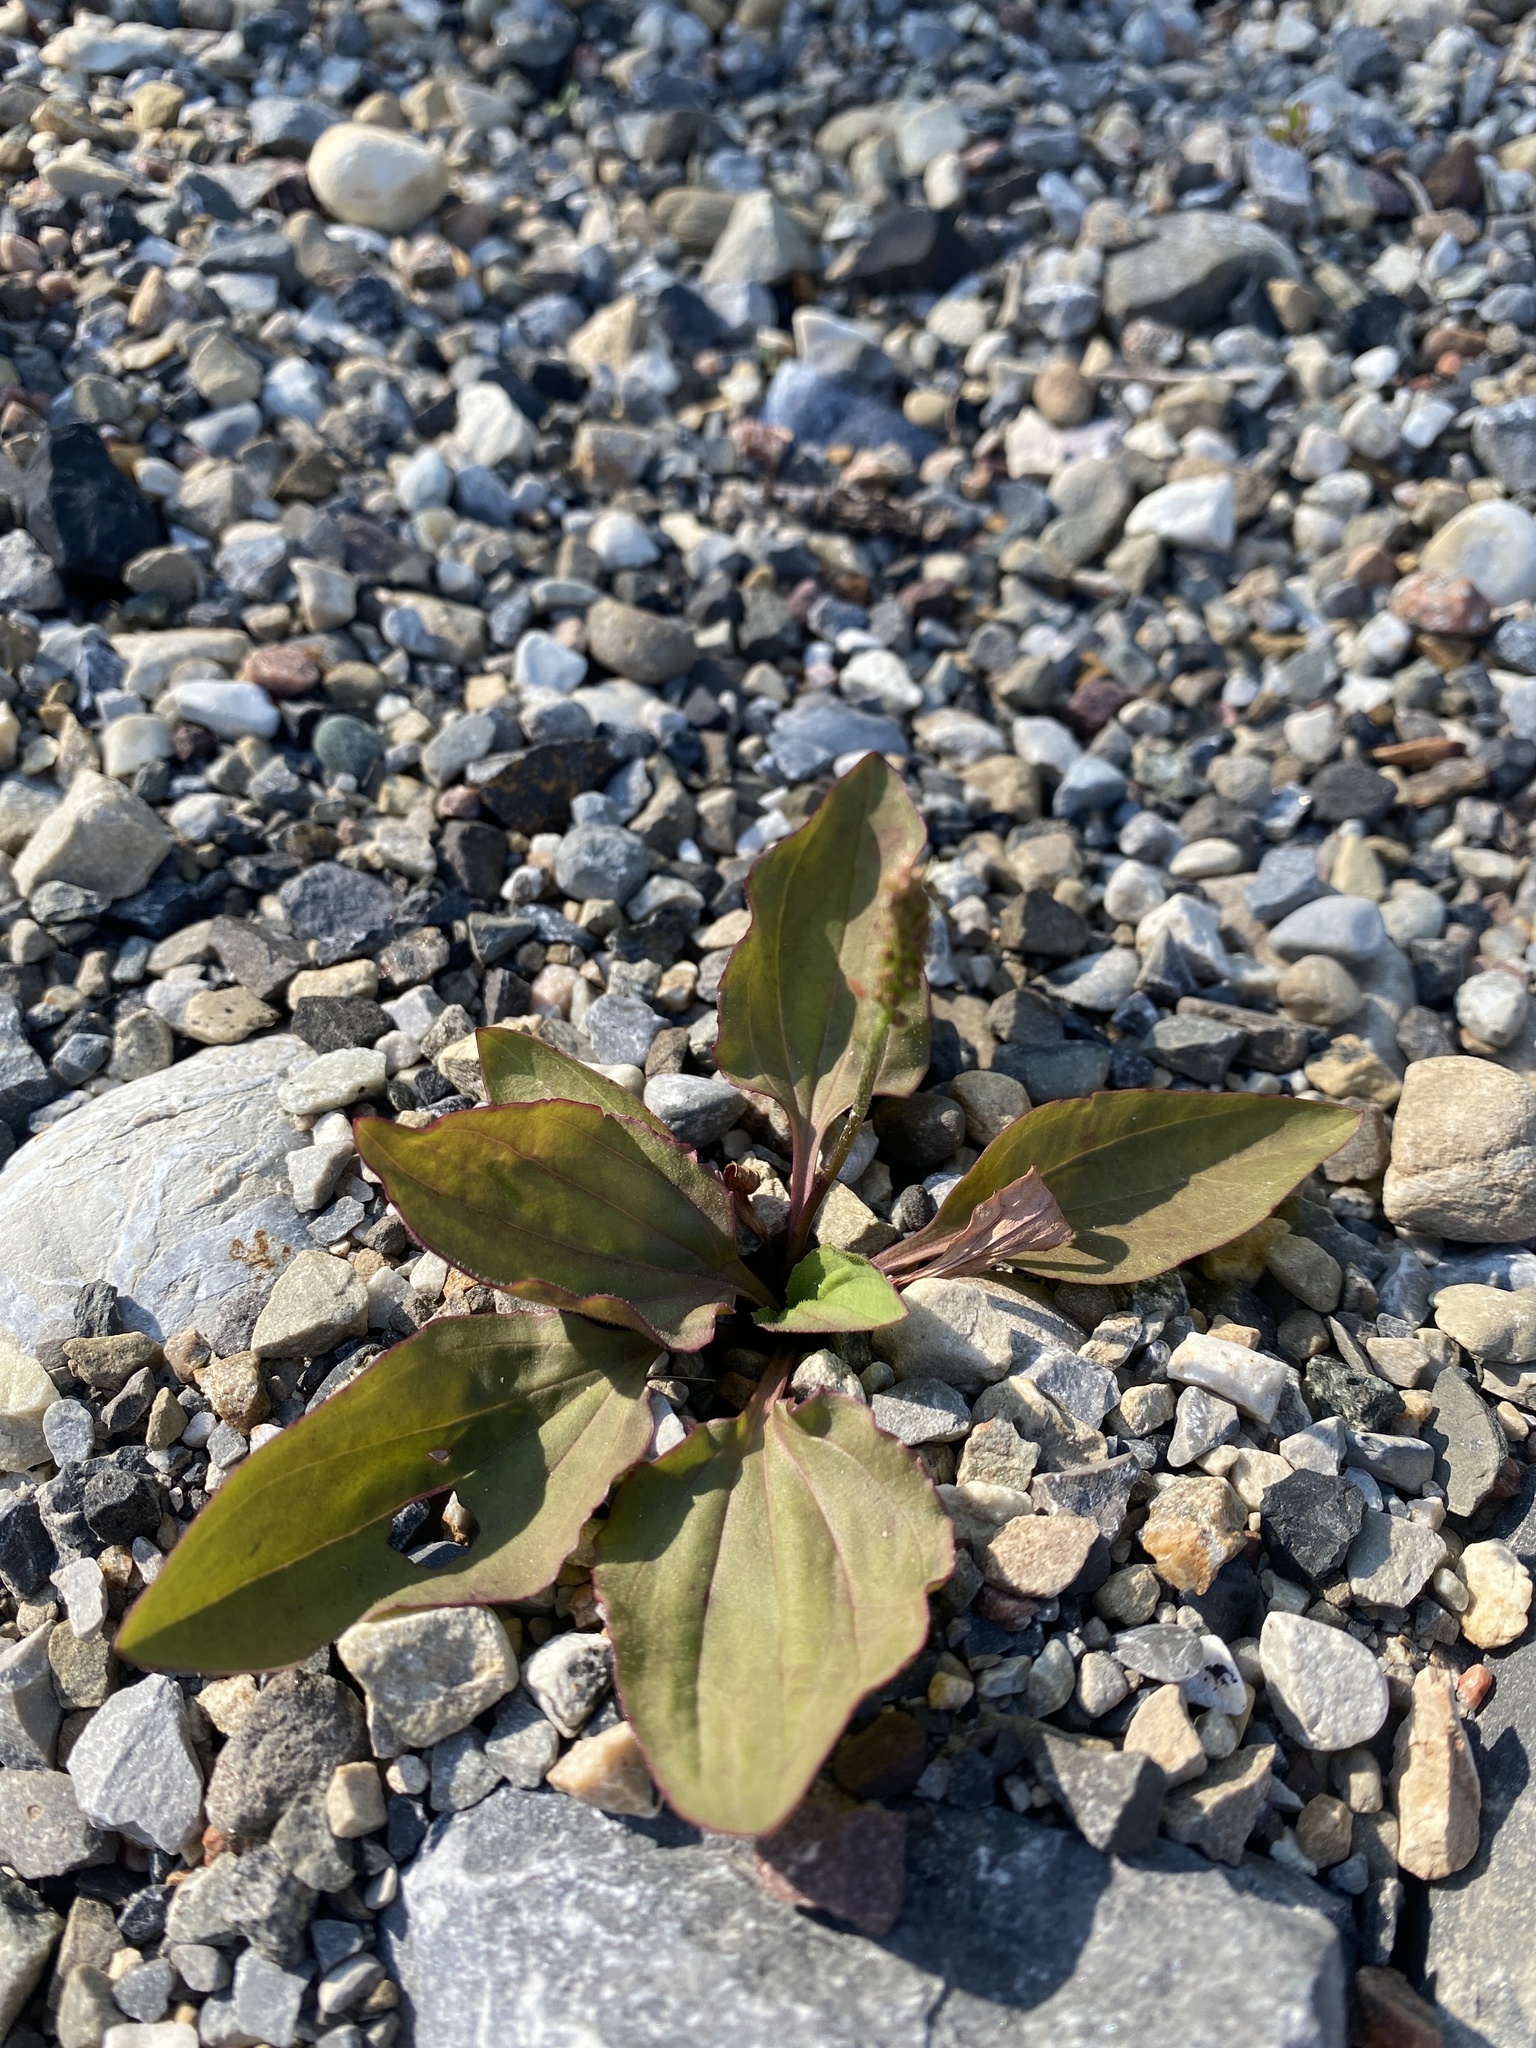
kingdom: Plantae
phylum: Tracheophyta
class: Magnoliopsida
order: Lamiales
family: Plantaginaceae
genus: Plantago
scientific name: Plantago major
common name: Common plantain
